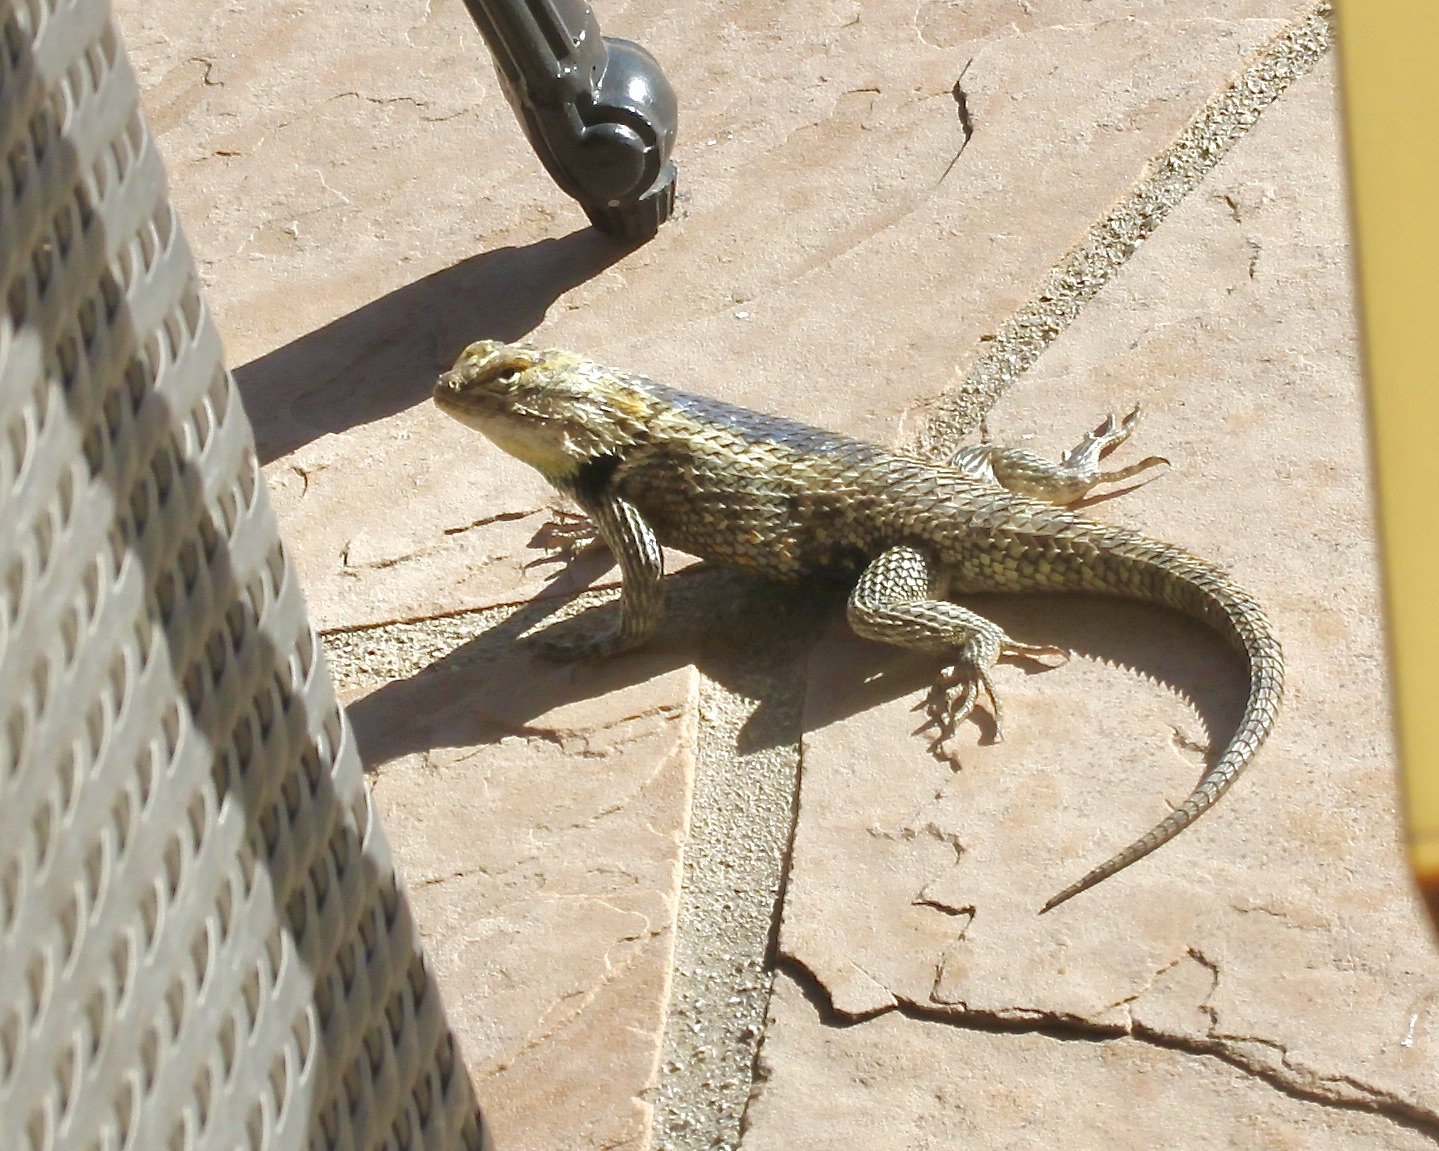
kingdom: Animalia
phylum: Chordata
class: Squamata
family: Phrynosomatidae
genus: Sceloporus
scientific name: Sceloporus magister
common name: Desert spiny lizard
